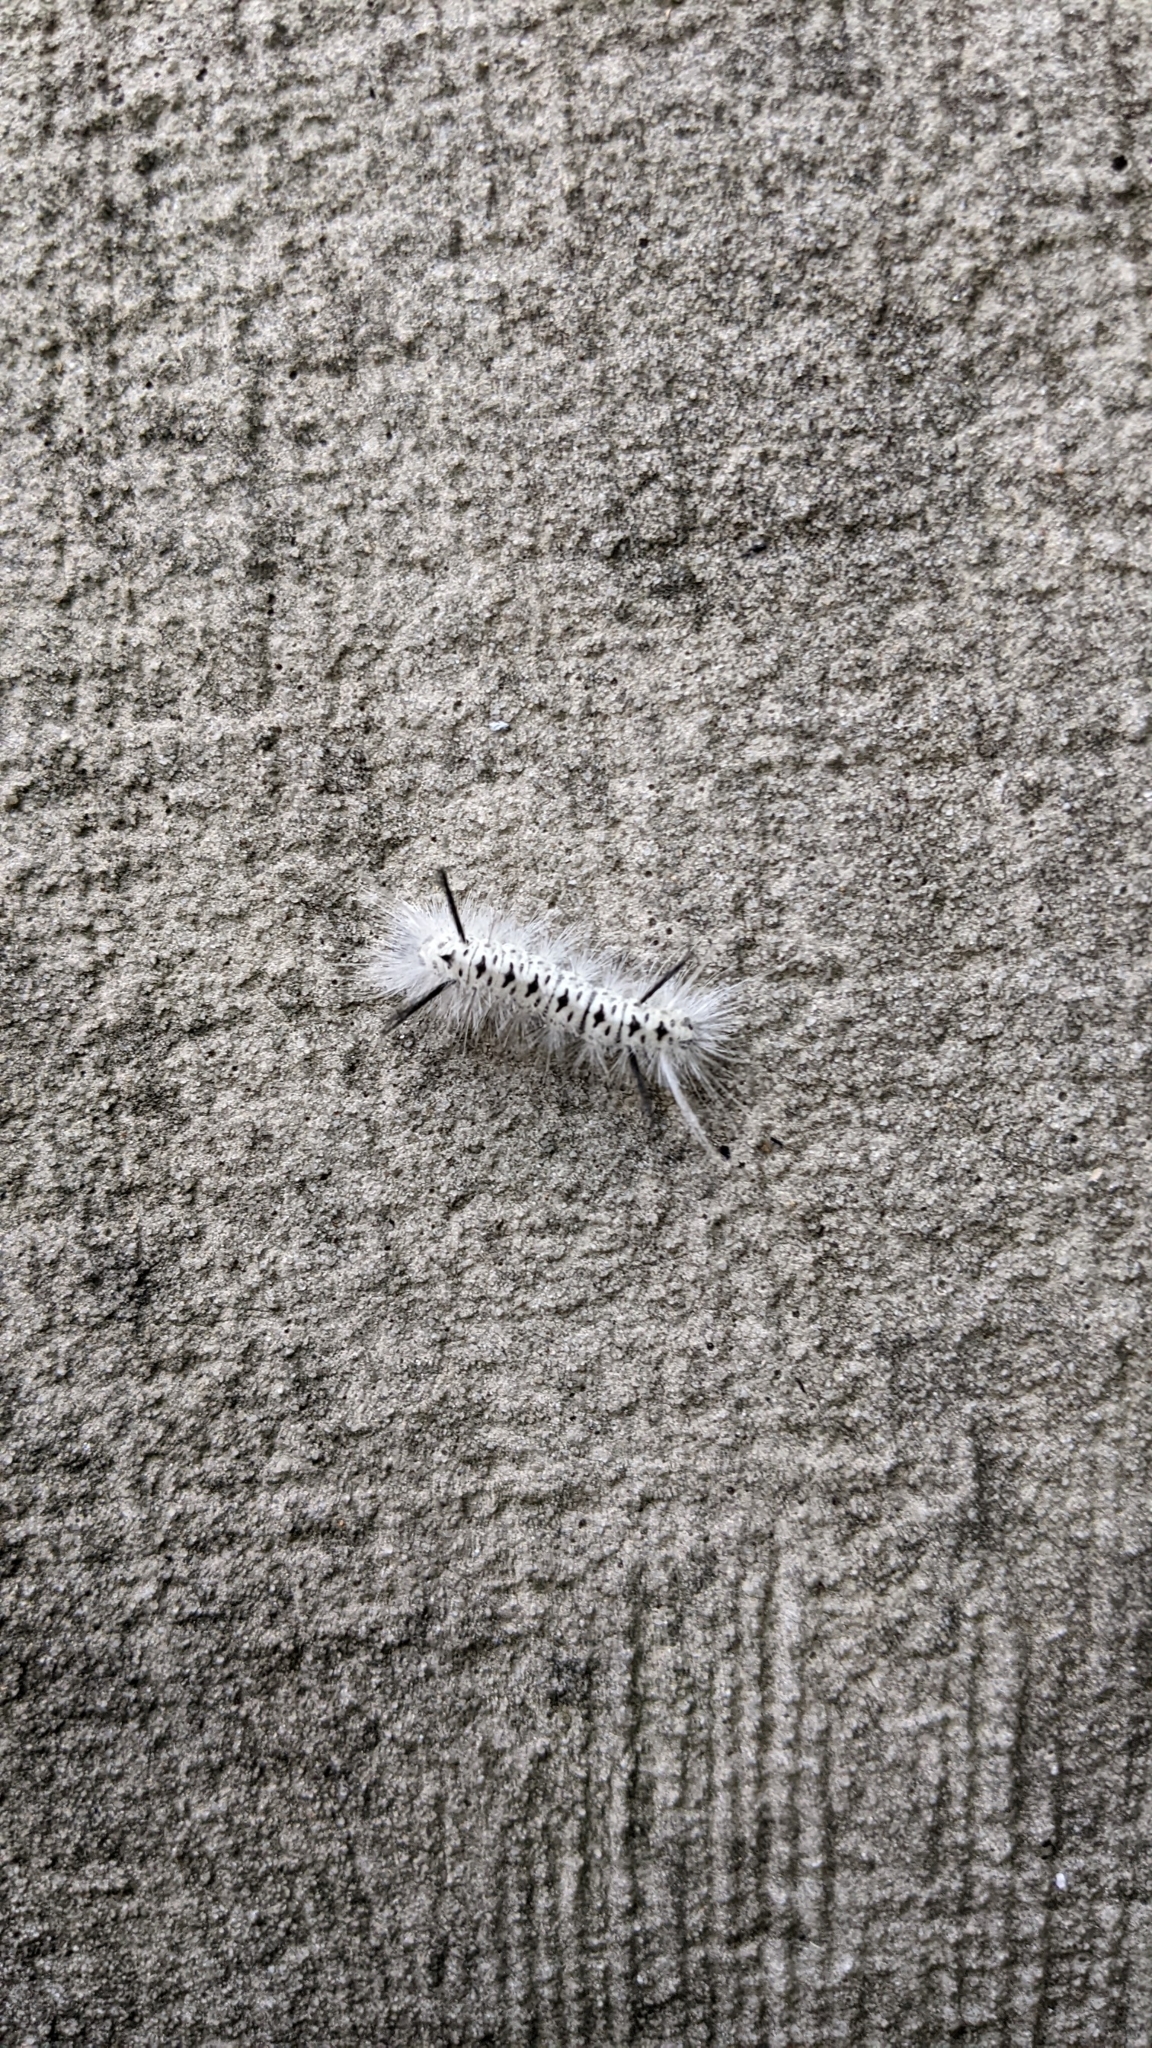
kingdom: Animalia
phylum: Arthropoda
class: Insecta
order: Lepidoptera
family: Erebidae
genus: Lophocampa
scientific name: Lophocampa caryae
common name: Hickory tussock moth
